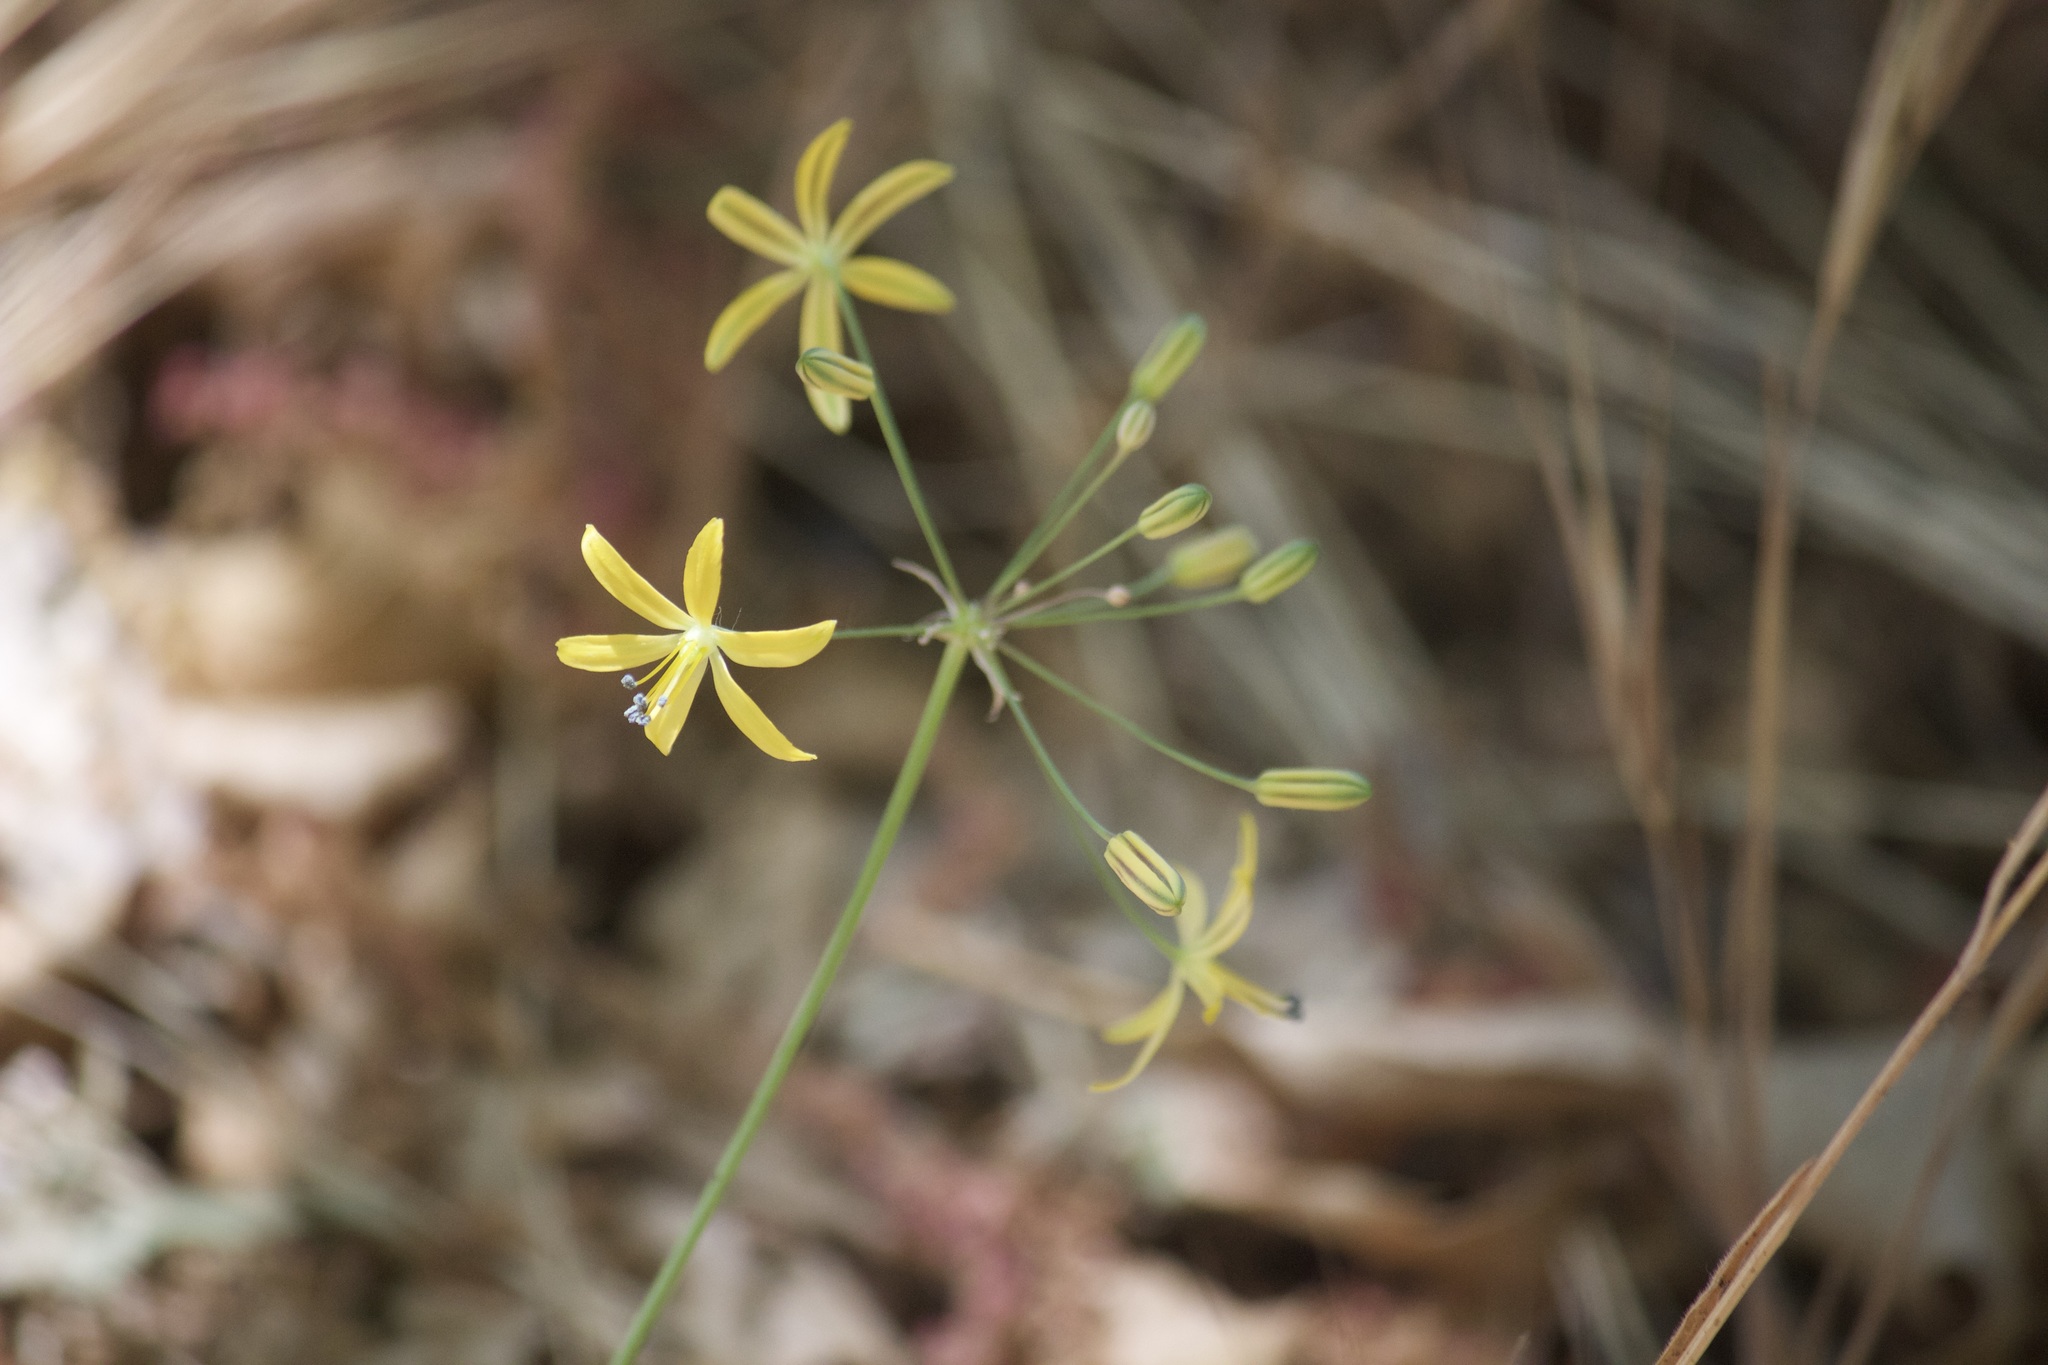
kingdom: Plantae
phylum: Tracheophyta
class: Liliopsida
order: Asparagales
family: Asparagaceae
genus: Bloomeria
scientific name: Bloomeria crocea
